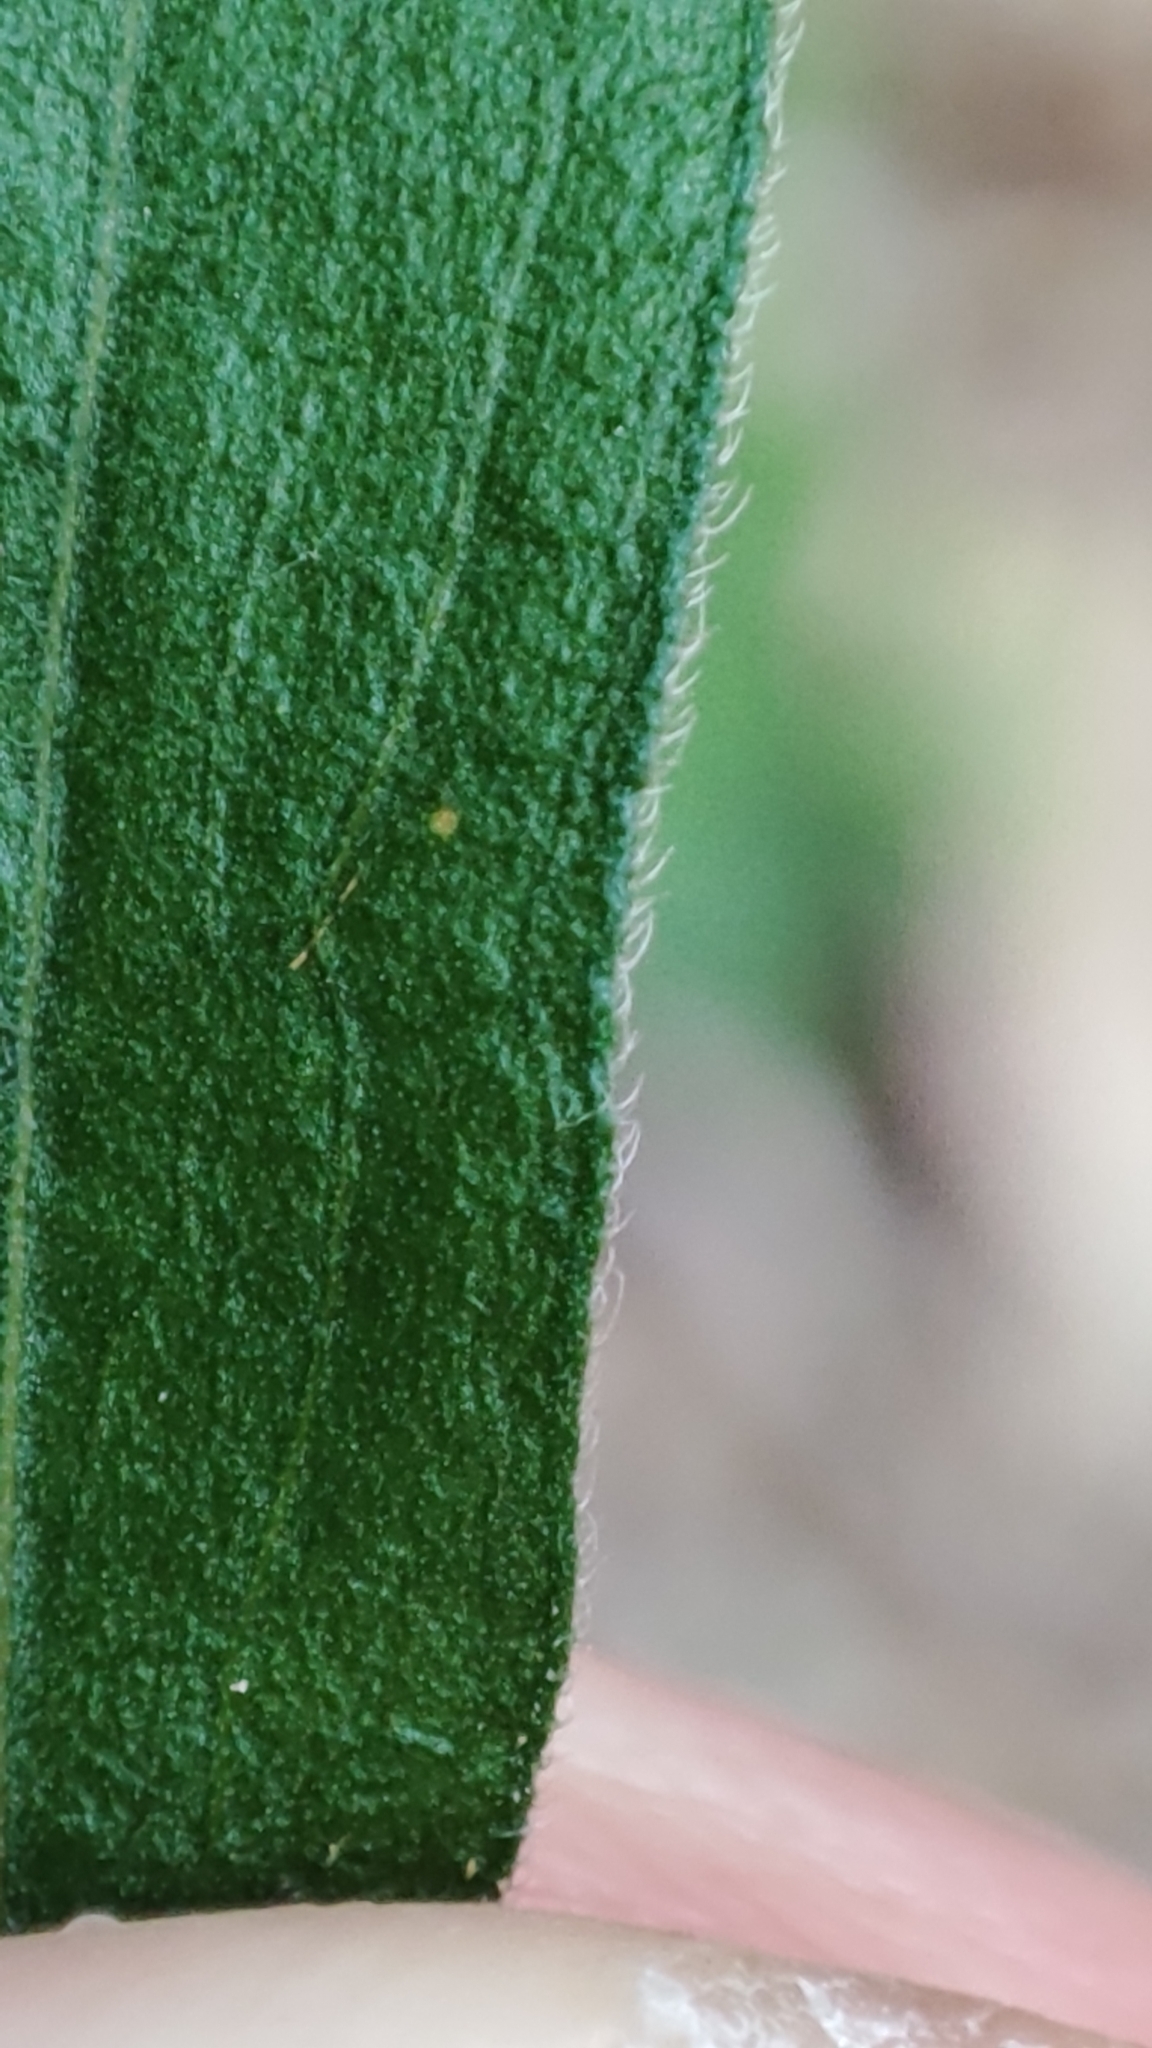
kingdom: Plantae
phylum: Tracheophyta
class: Magnoliopsida
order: Asterales
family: Asteraceae
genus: Erigeron
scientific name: Erigeron sumatrensis
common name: Daisy
